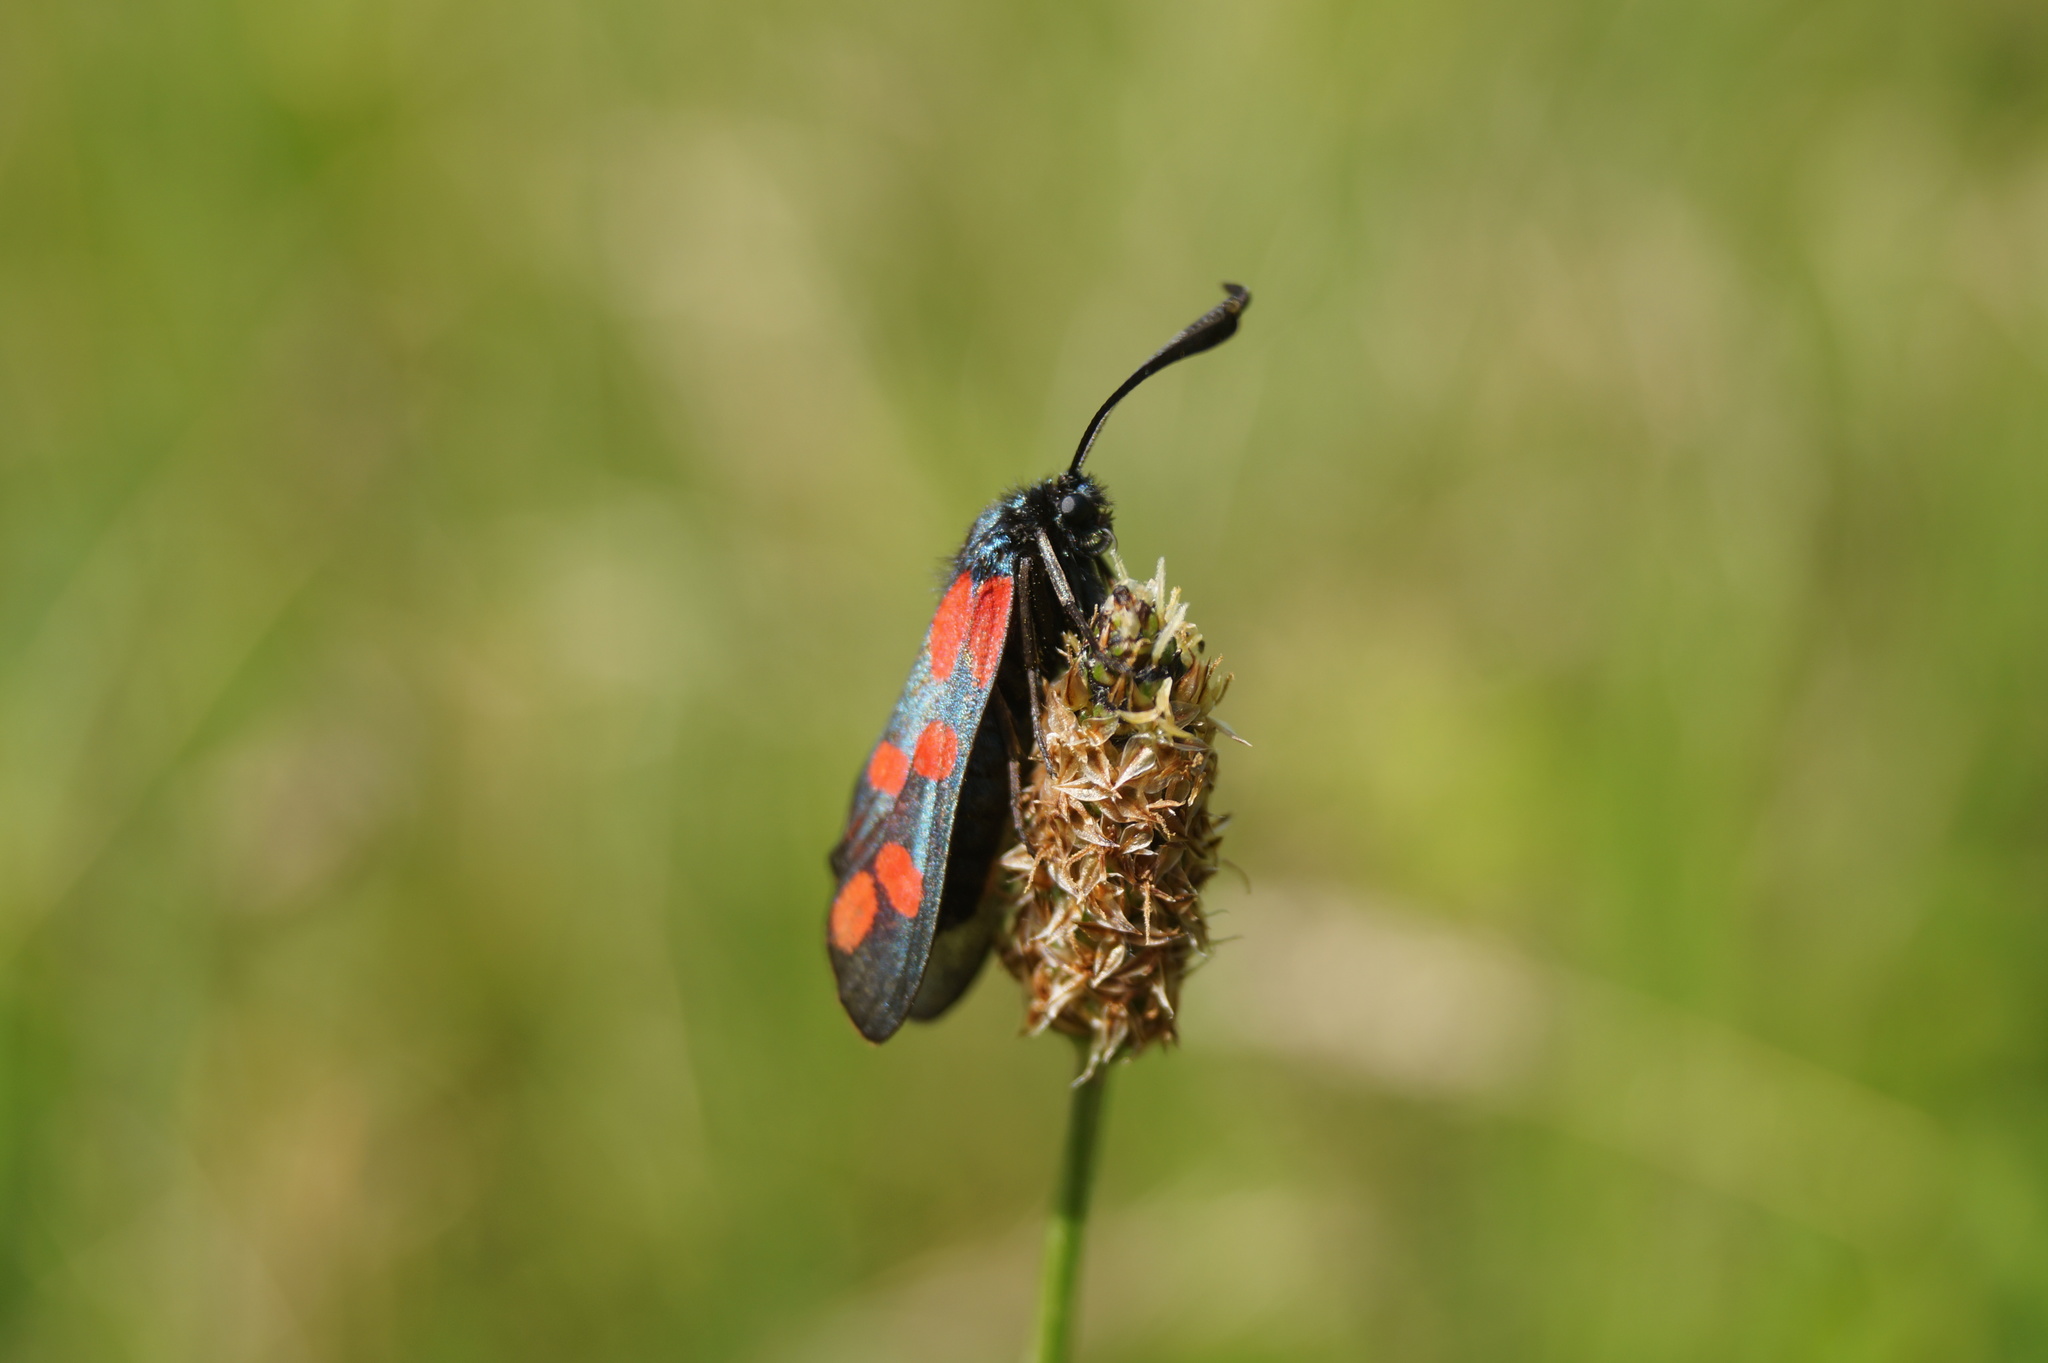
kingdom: Animalia
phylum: Arthropoda
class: Insecta
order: Lepidoptera
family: Zygaenidae
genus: Zygaena
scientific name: Zygaena filipendulae
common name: Six-spot burnet
